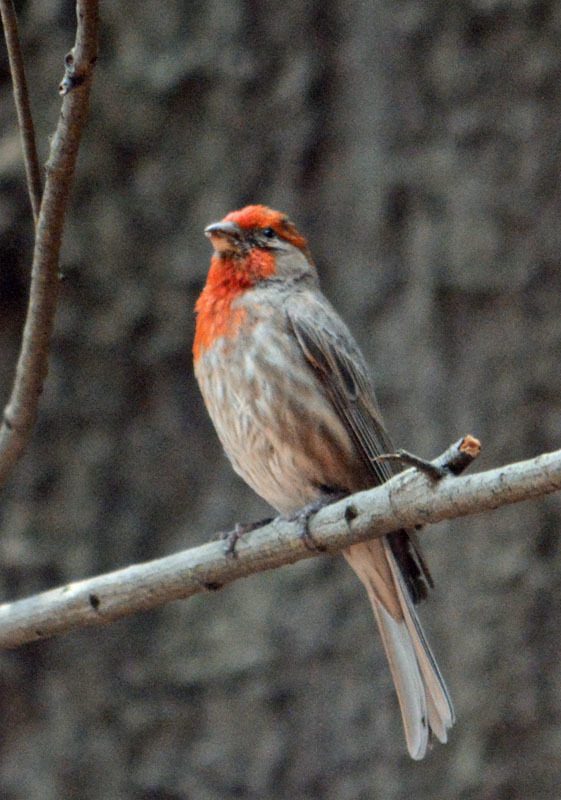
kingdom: Animalia
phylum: Chordata
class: Aves
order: Passeriformes
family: Fringillidae
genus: Haemorhous
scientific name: Haemorhous mexicanus
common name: House finch
